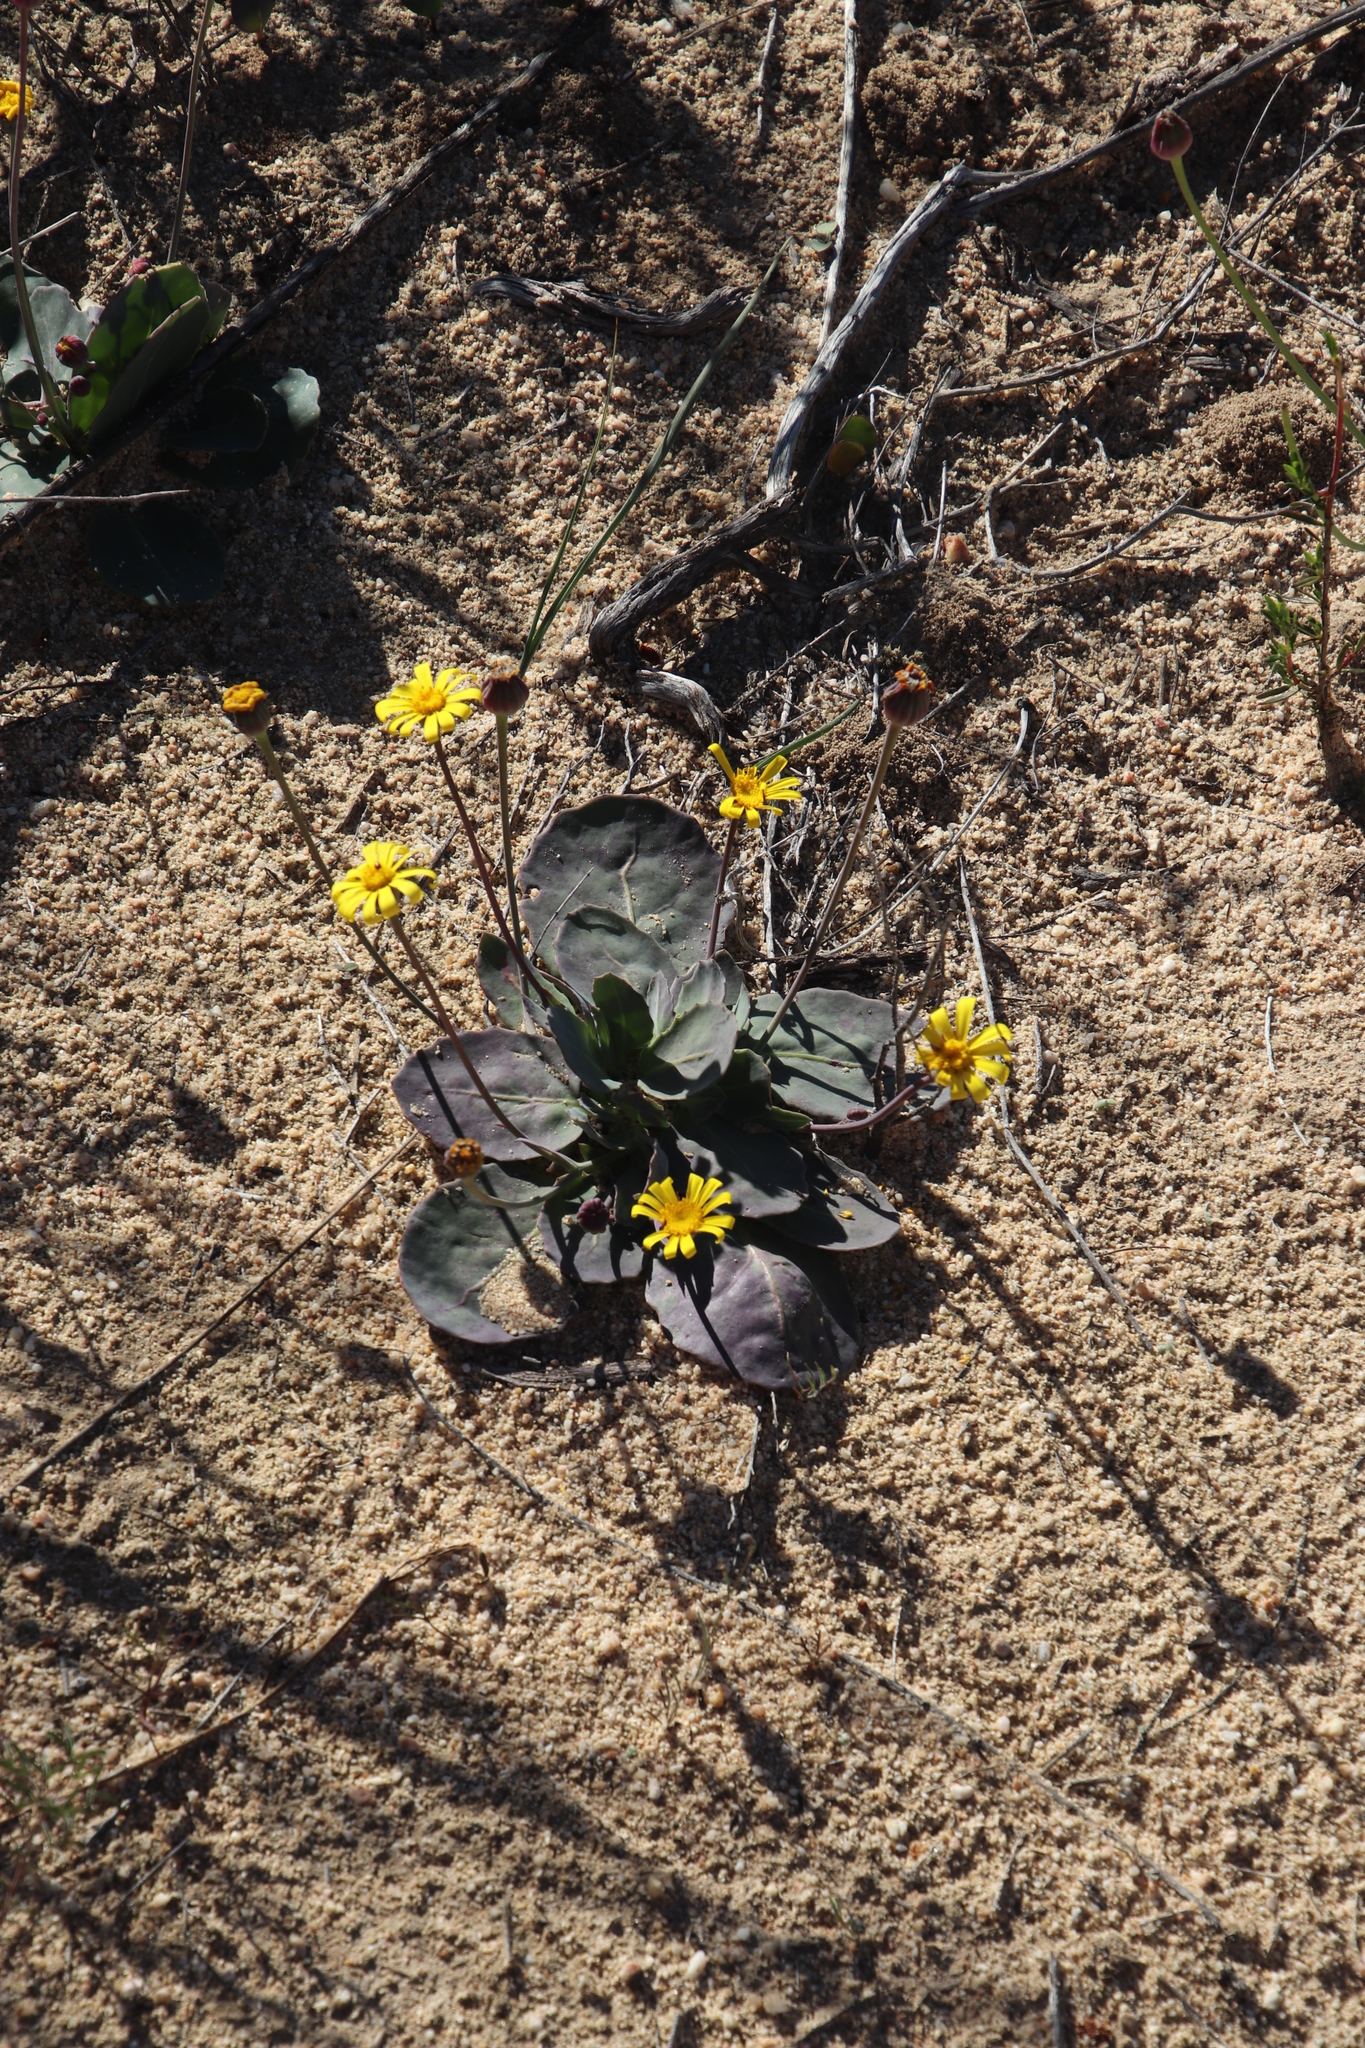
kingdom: Plantae
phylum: Tracheophyta
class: Magnoliopsida
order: Asterales
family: Asteraceae
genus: Othonna
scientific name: Othonna petiolaris
